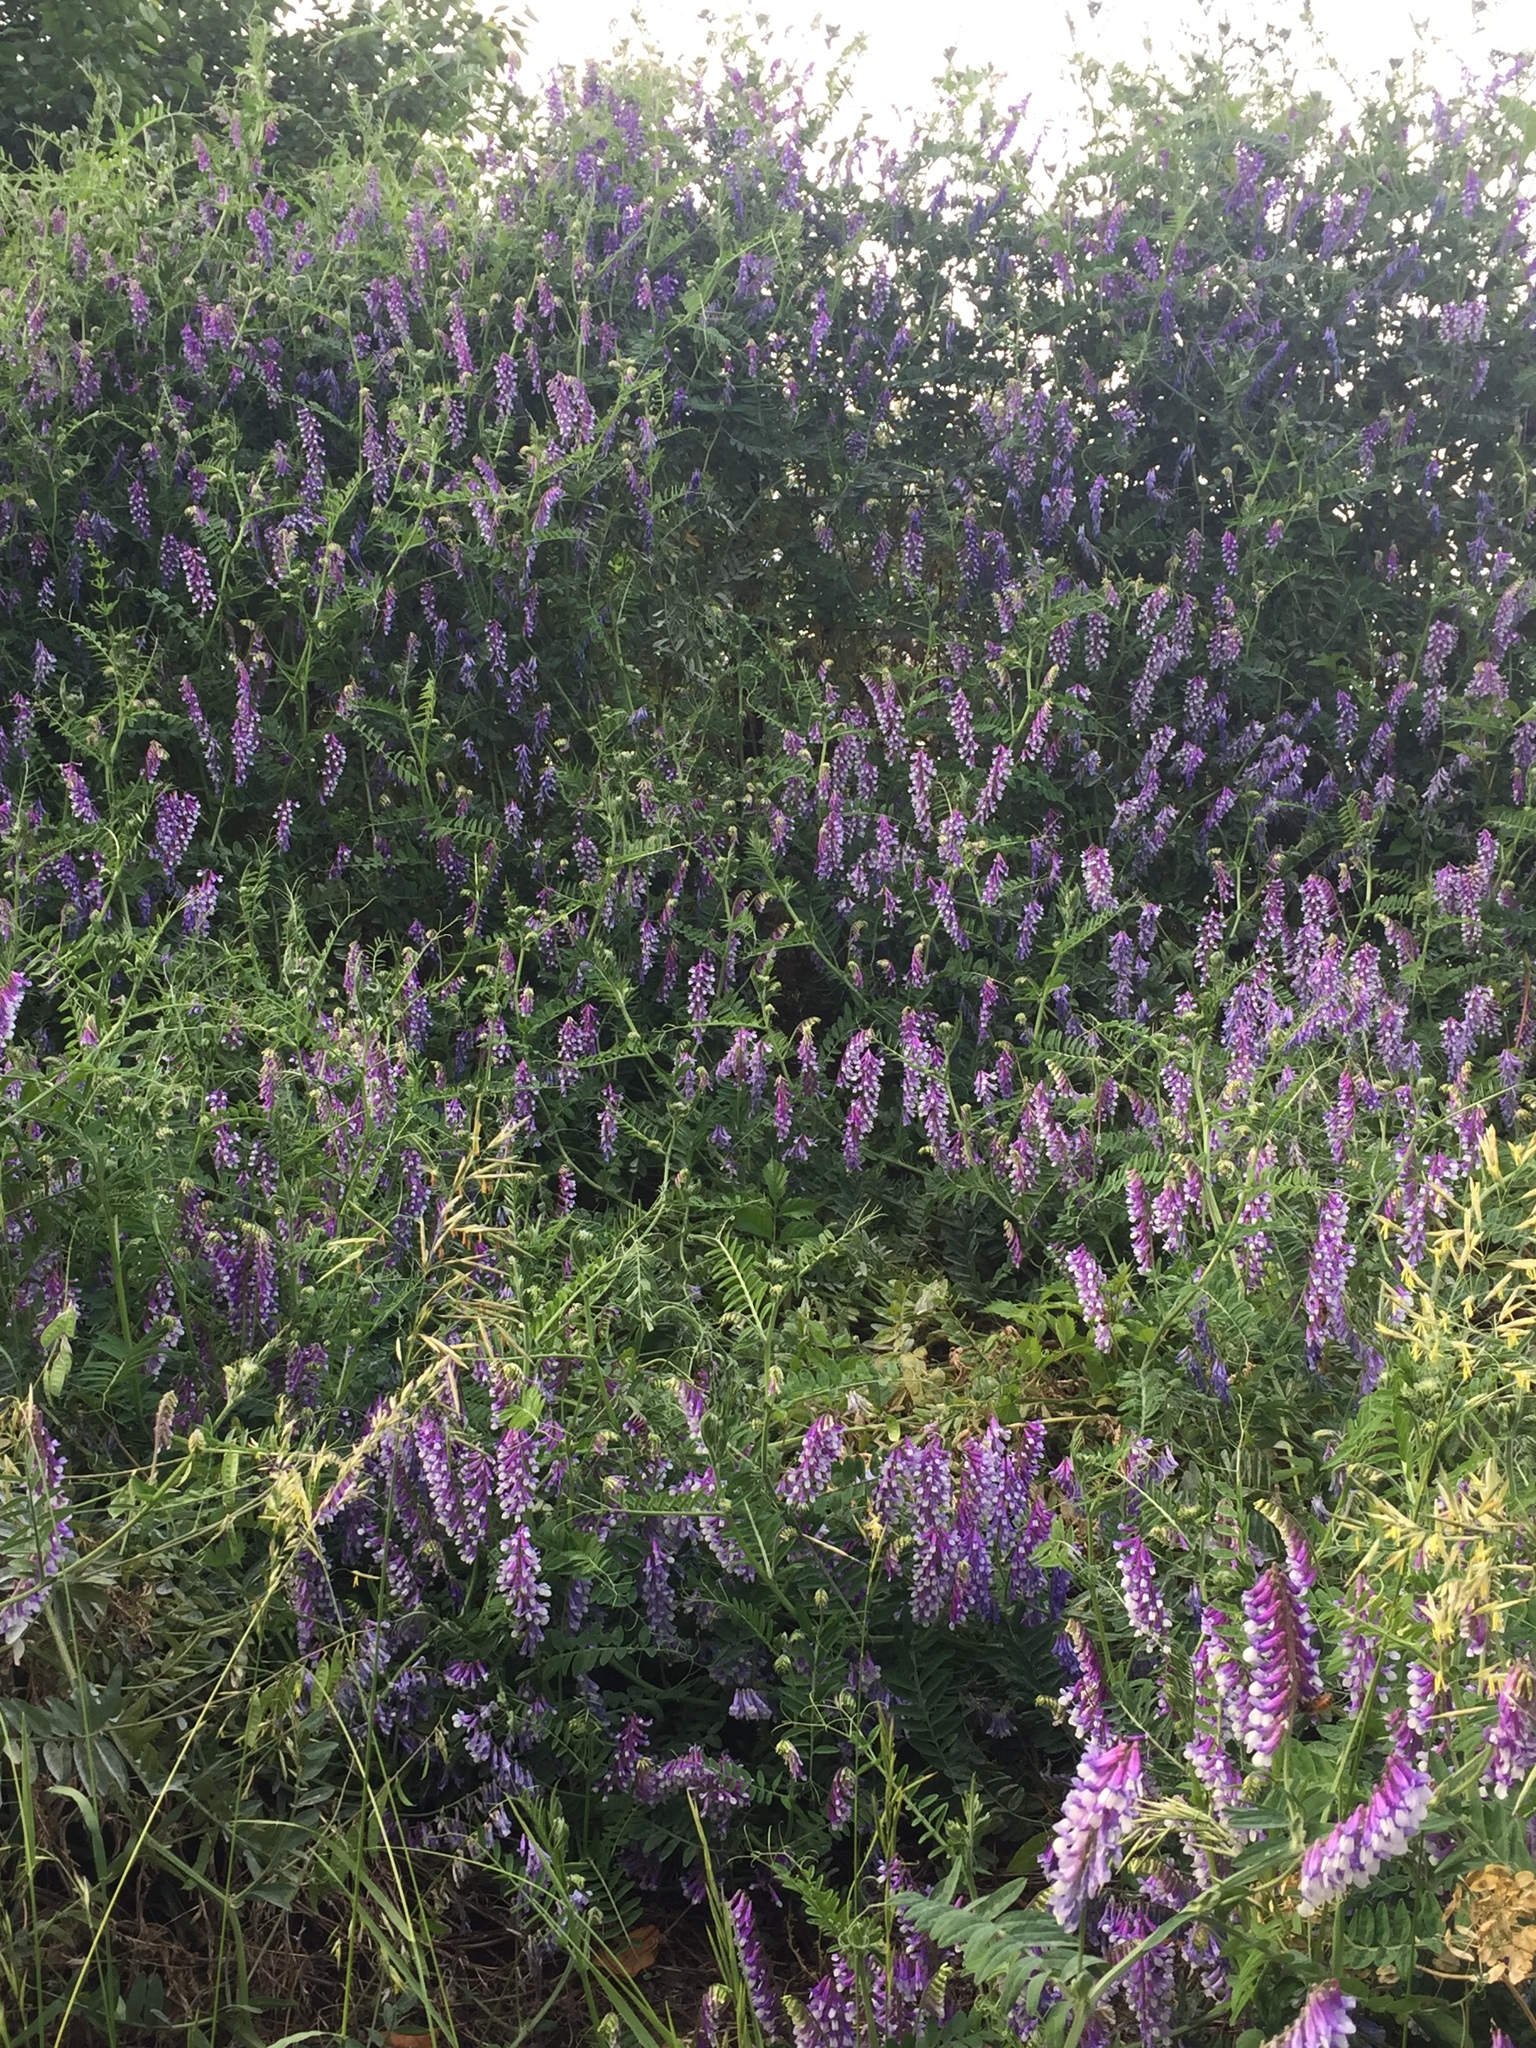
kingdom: Plantae
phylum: Tracheophyta
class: Magnoliopsida
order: Fabales
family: Fabaceae
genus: Vicia
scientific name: Vicia villosa
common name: Fodder vetch
